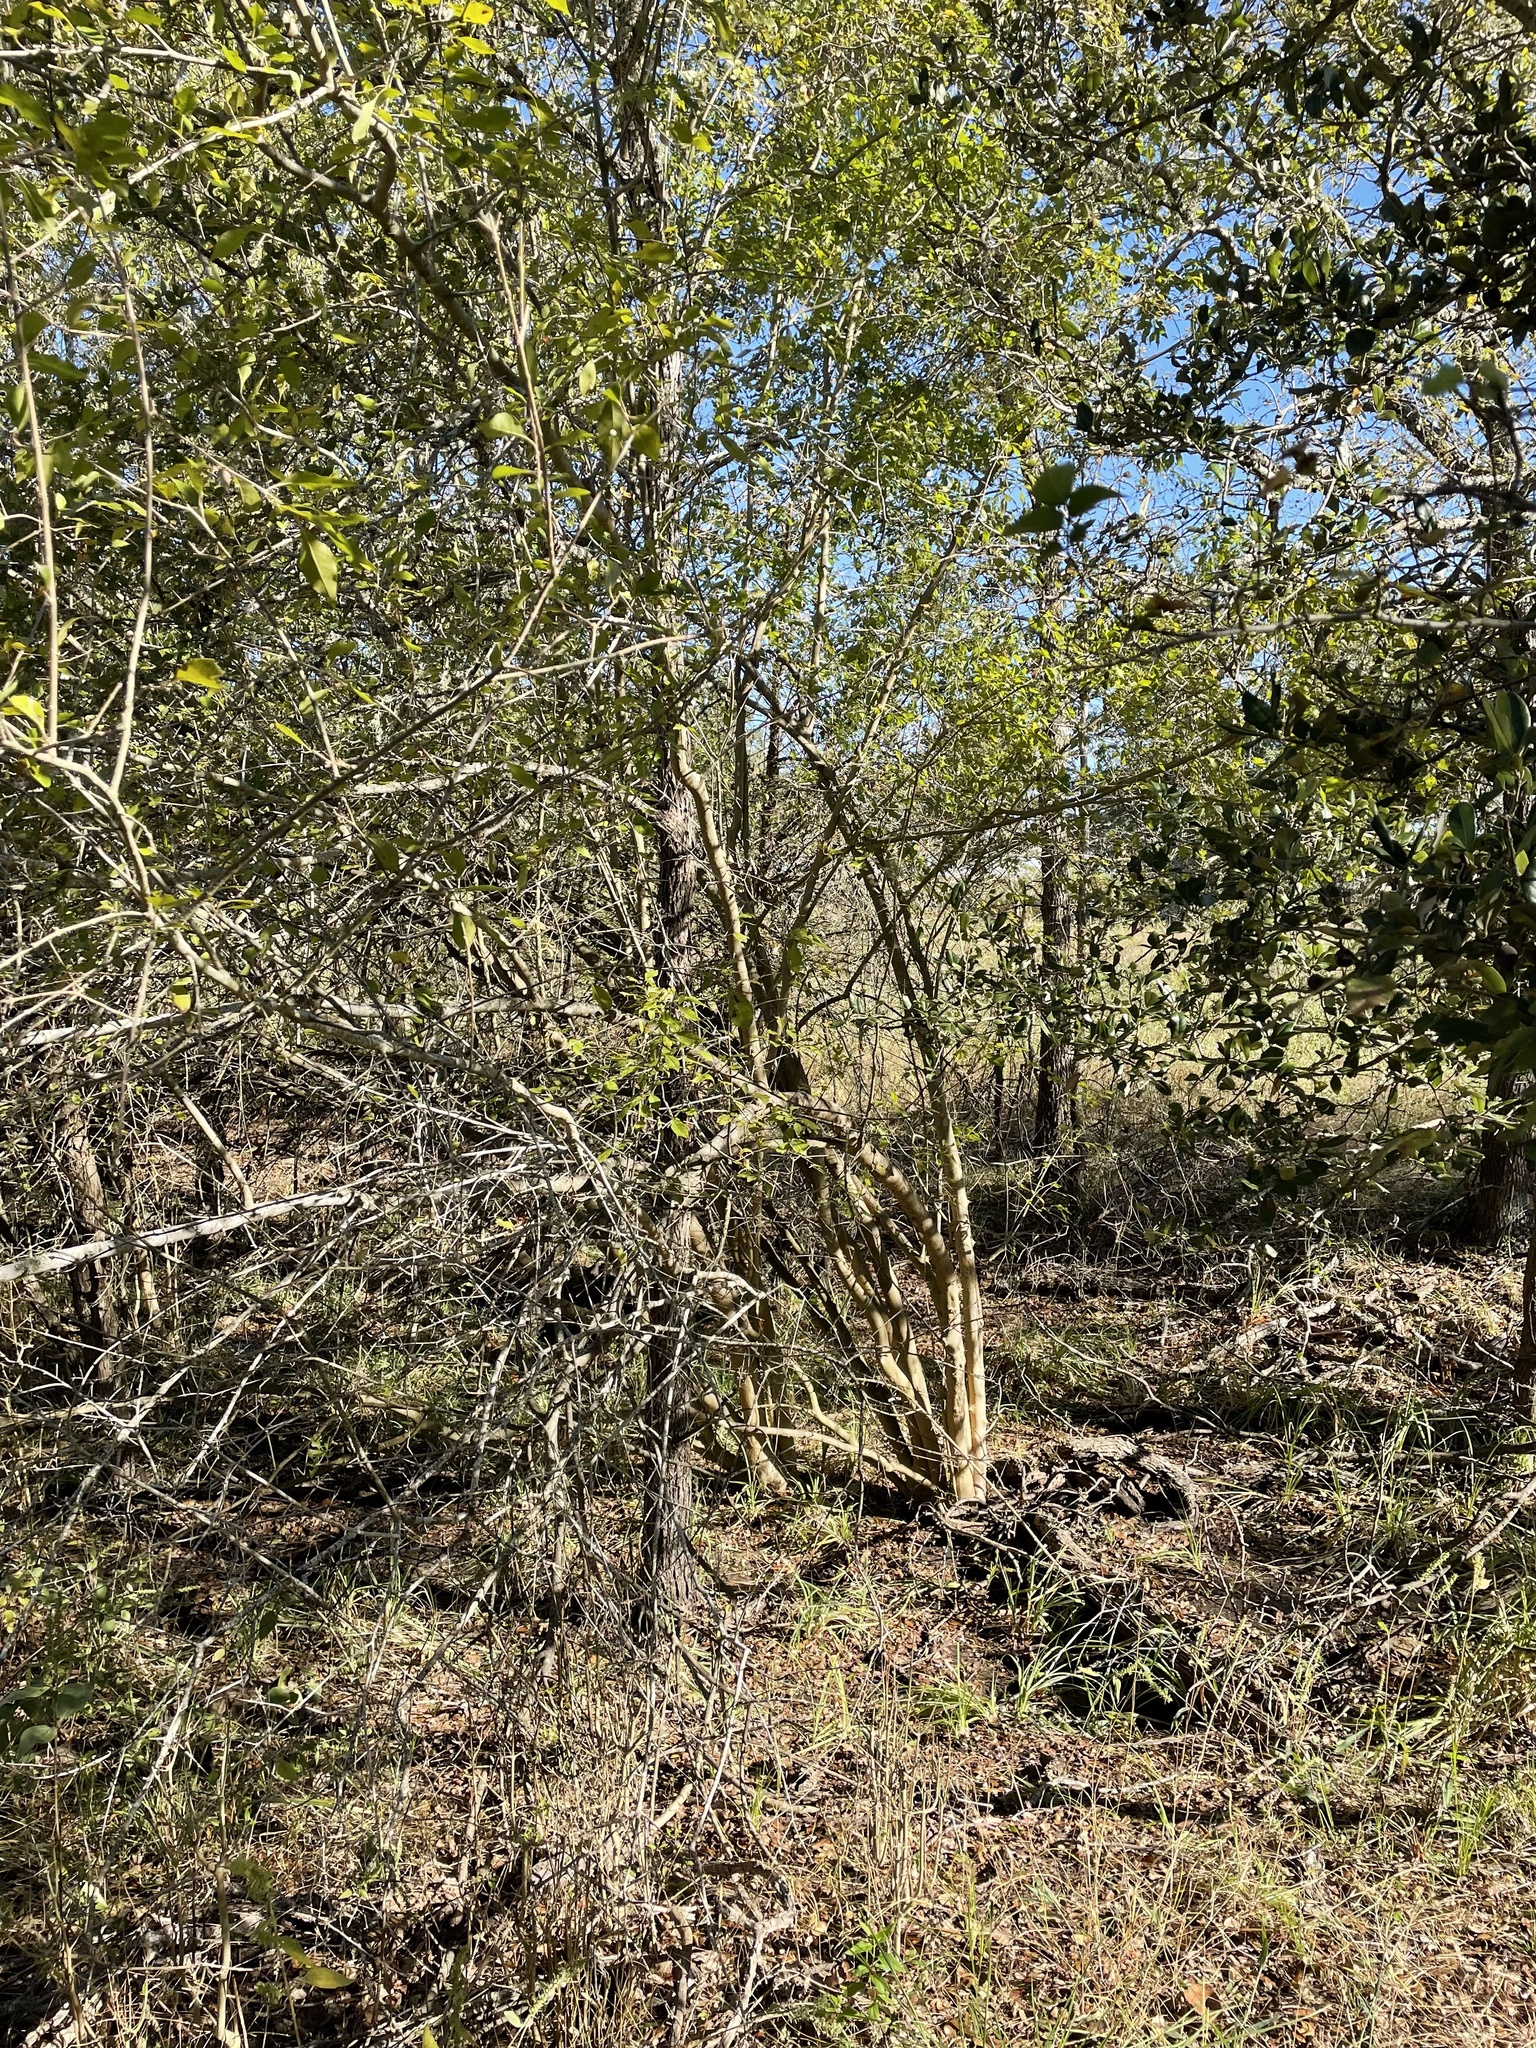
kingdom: Plantae
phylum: Tracheophyta
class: Magnoliopsida
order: Lamiales
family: Oleaceae
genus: Forestiera
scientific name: Forestiera acuminata
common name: Swamp-privet
